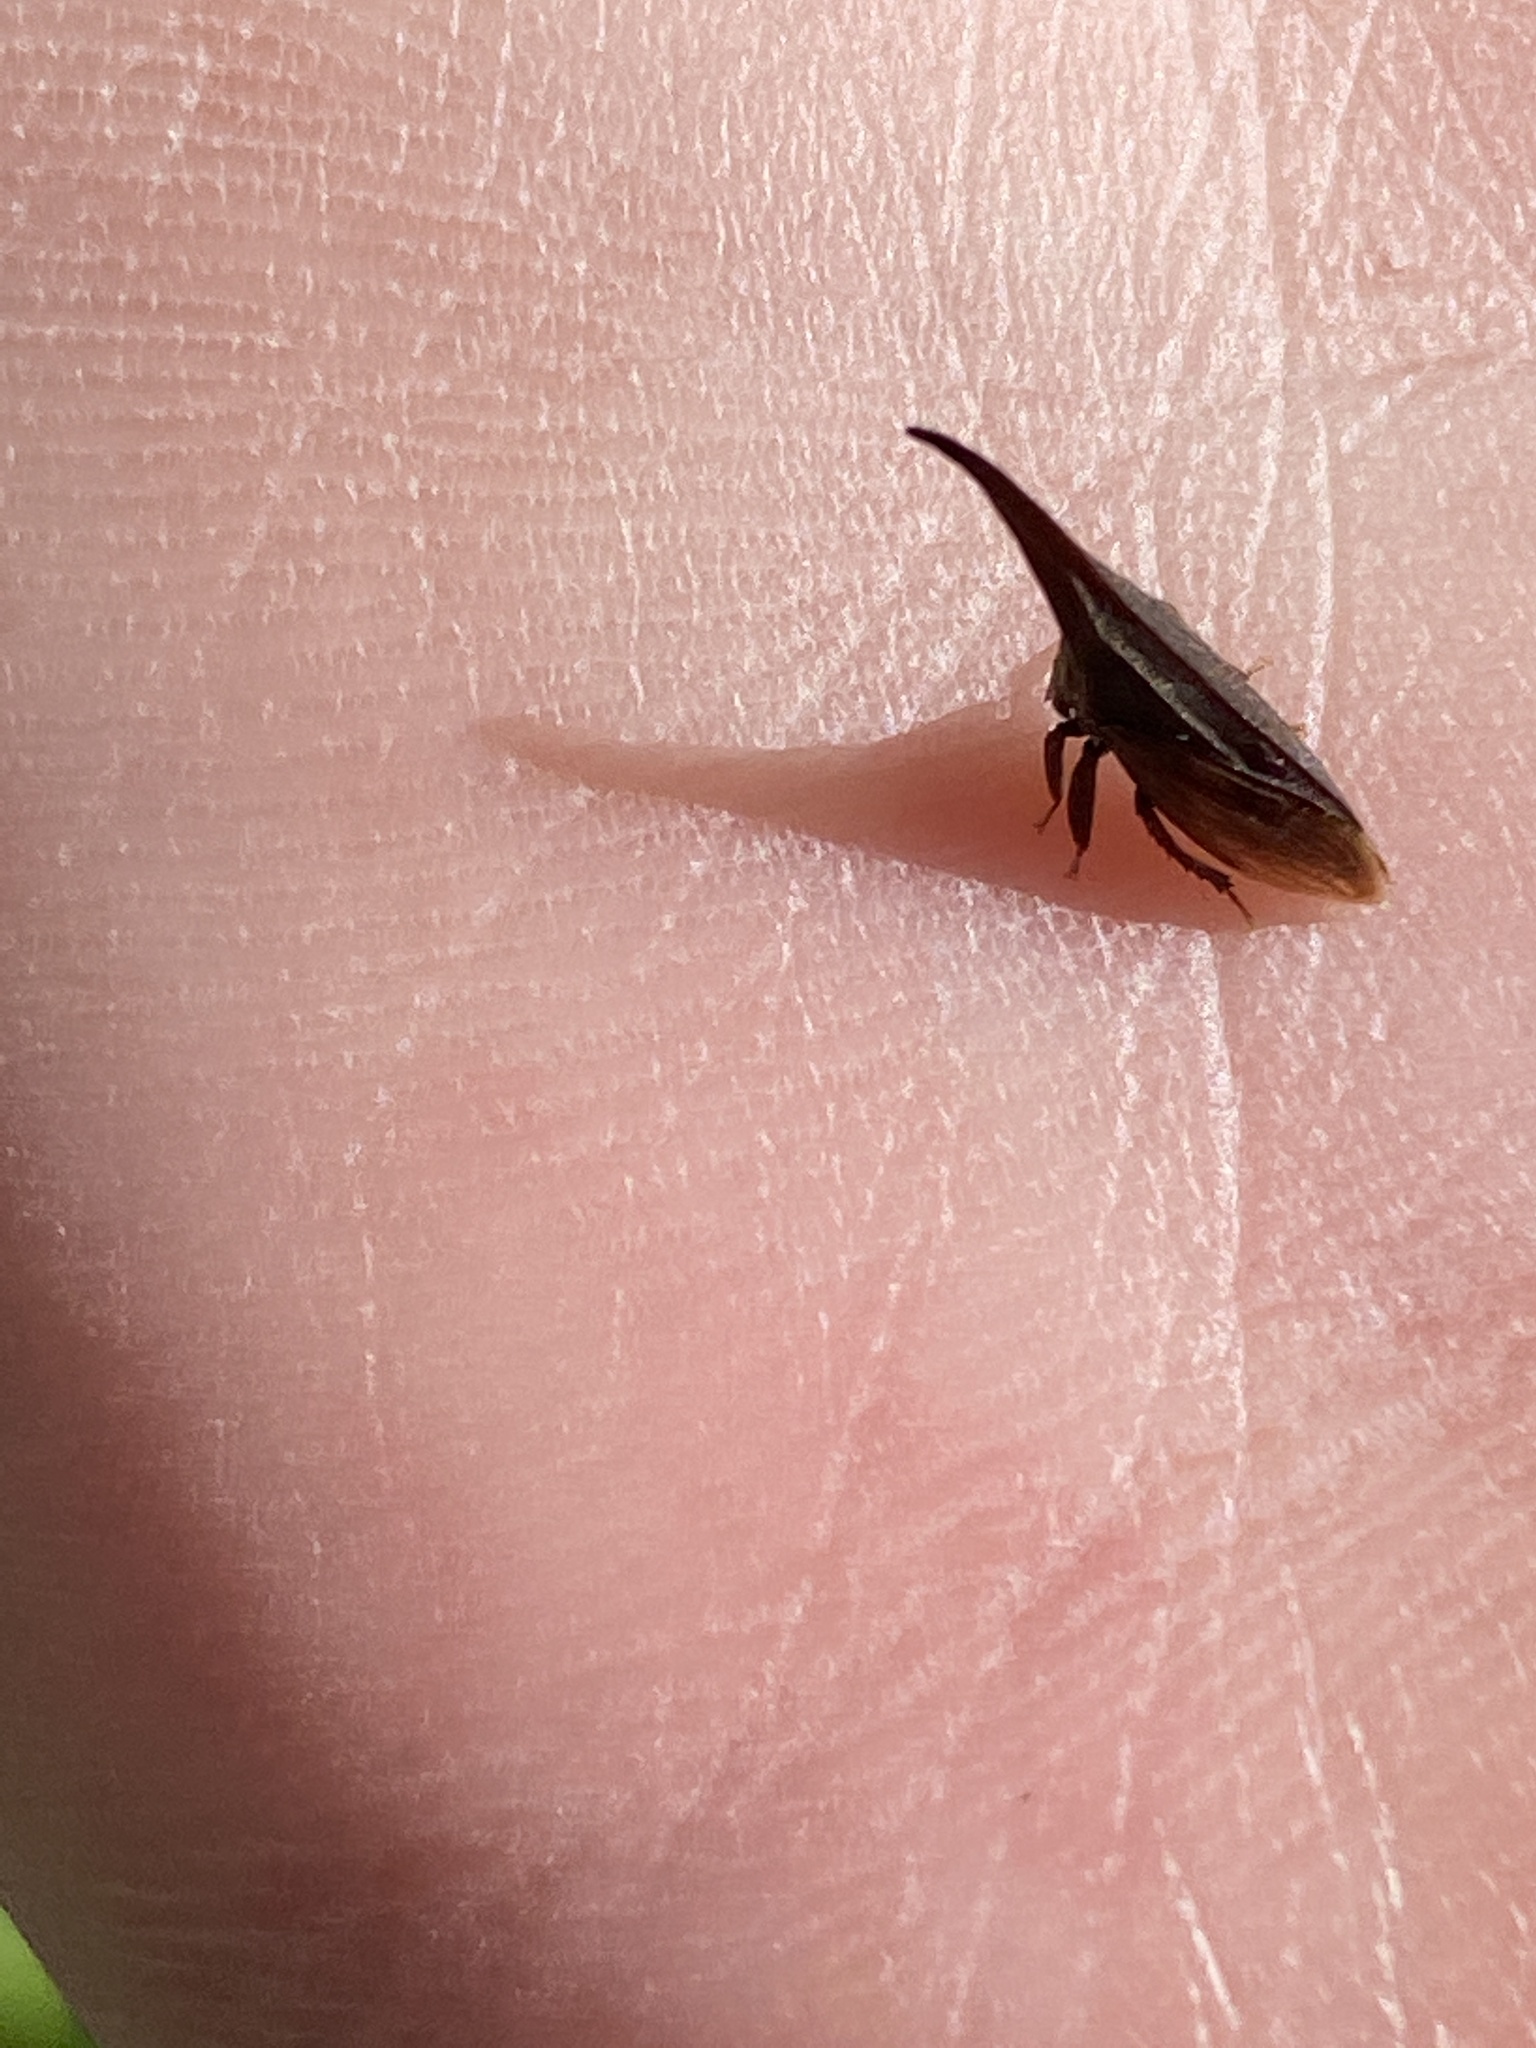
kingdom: Animalia
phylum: Arthropoda
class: Insecta
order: Hemiptera
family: Membracidae
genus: Enchenopa
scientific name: Enchenopa latipes
